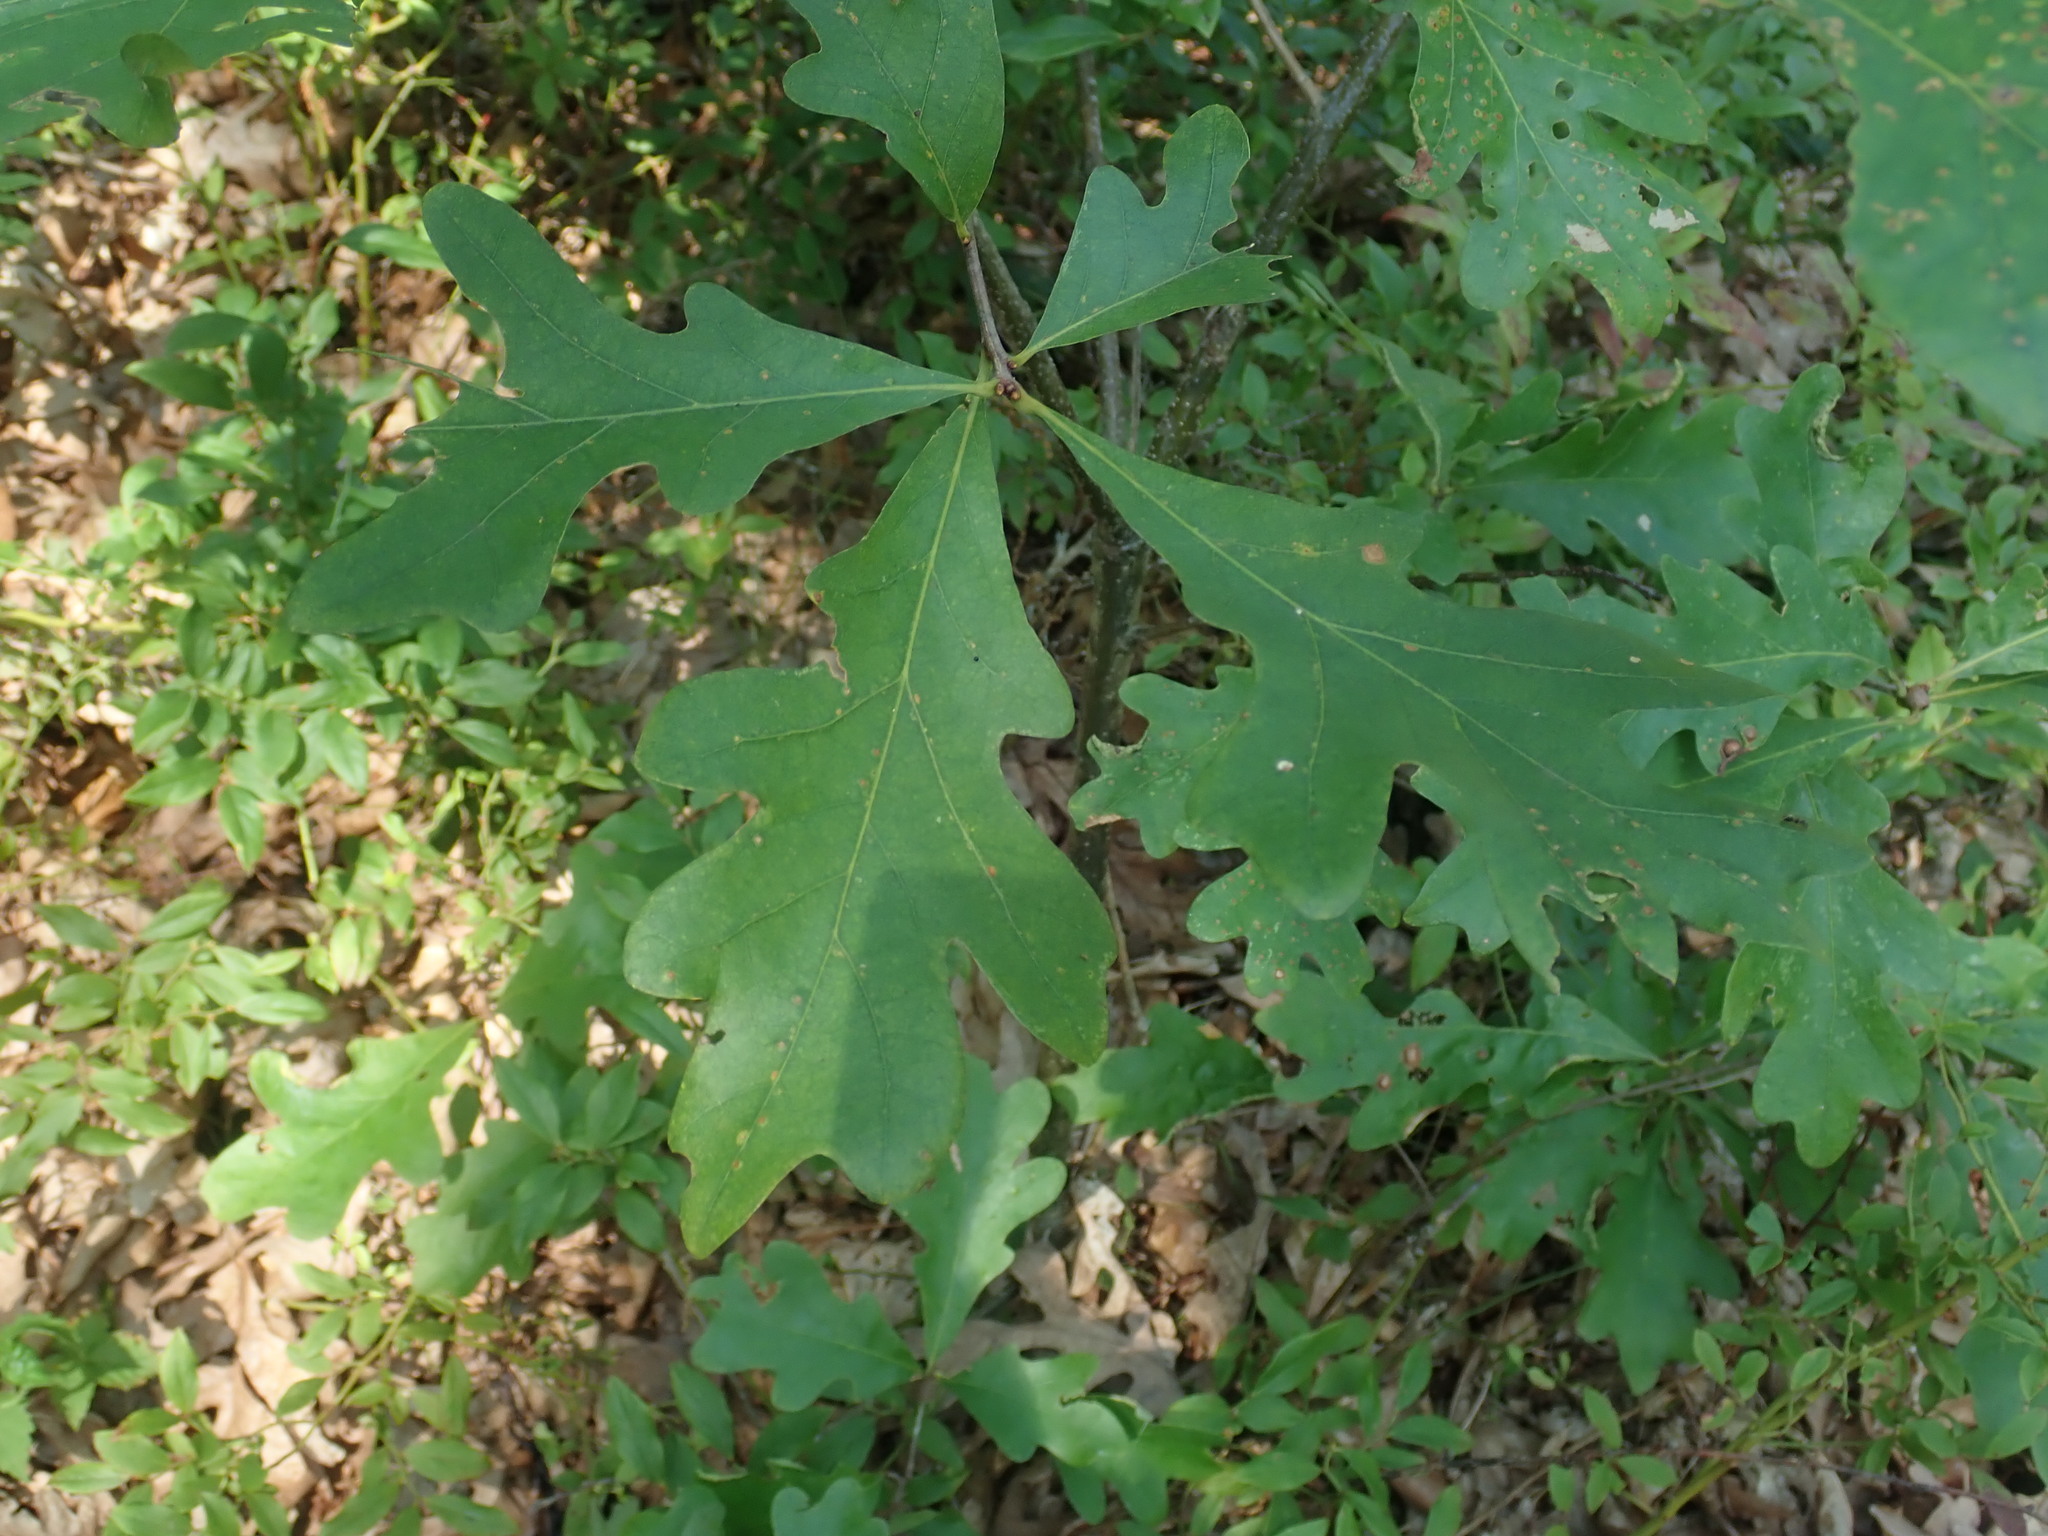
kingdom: Plantae
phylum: Tracheophyta
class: Magnoliopsida
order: Fagales
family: Fagaceae
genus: Quercus
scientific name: Quercus alba
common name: White oak
